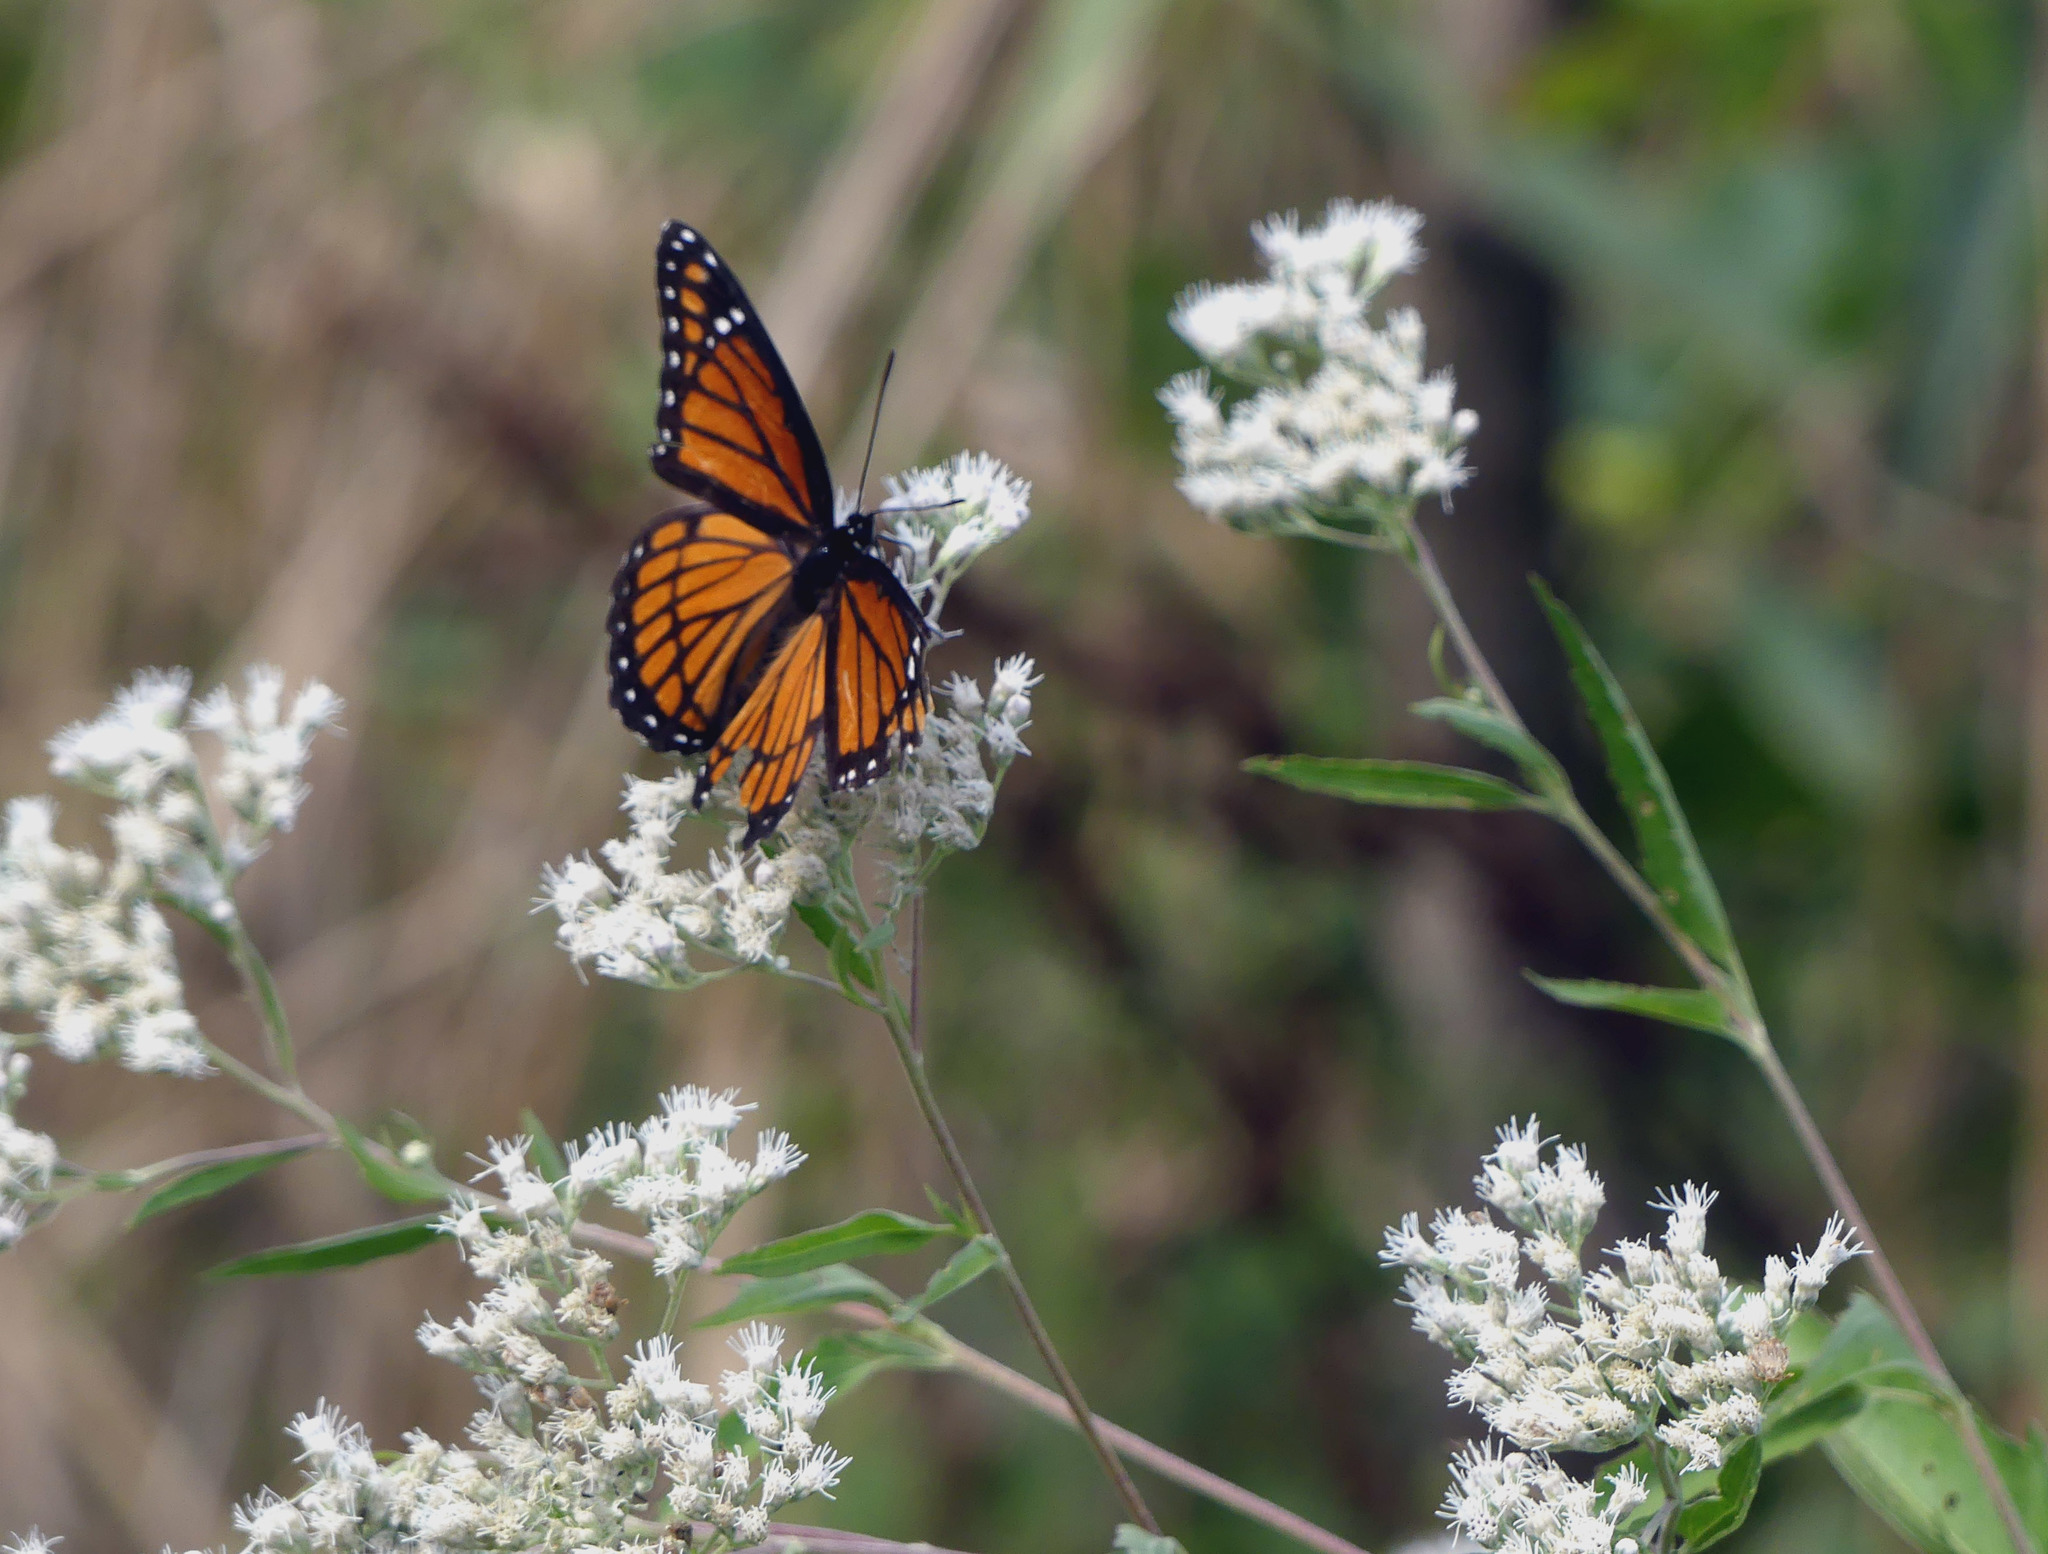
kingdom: Animalia
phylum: Arthropoda
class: Insecta
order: Lepidoptera
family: Nymphalidae
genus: Limenitis
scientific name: Limenitis archippus
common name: Viceroy
